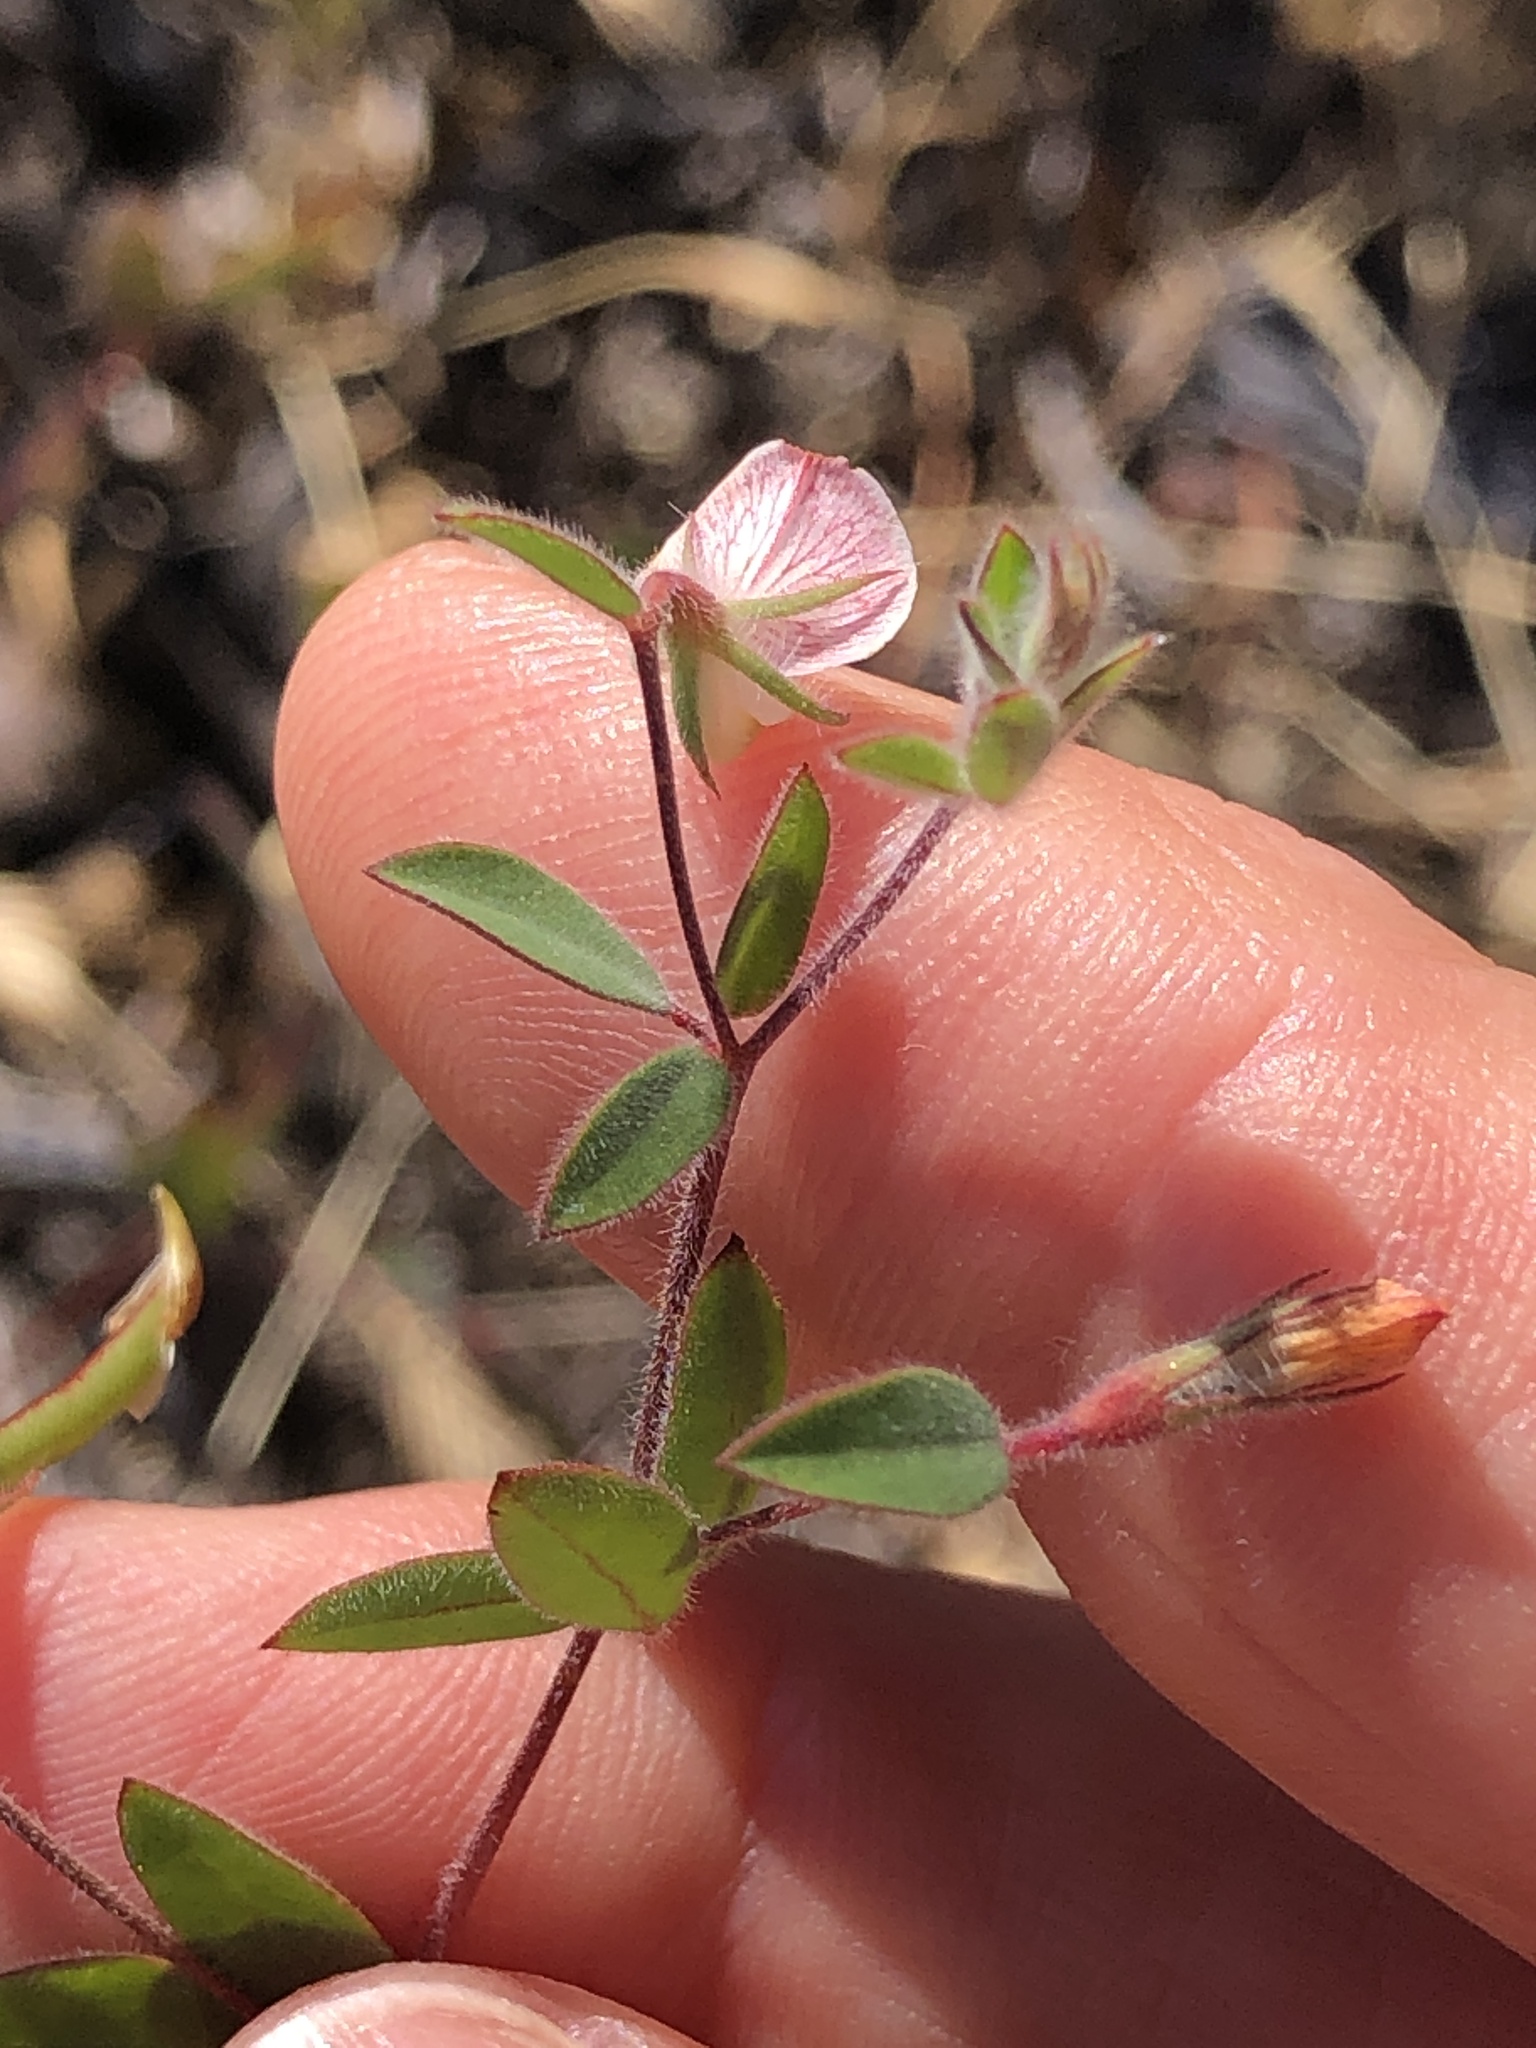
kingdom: Plantae
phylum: Tracheophyta
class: Magnoliopsida
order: Fabales
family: Fabaceae
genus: Acmispon
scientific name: Acmispon americanus
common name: American bird's-foot trefoil
